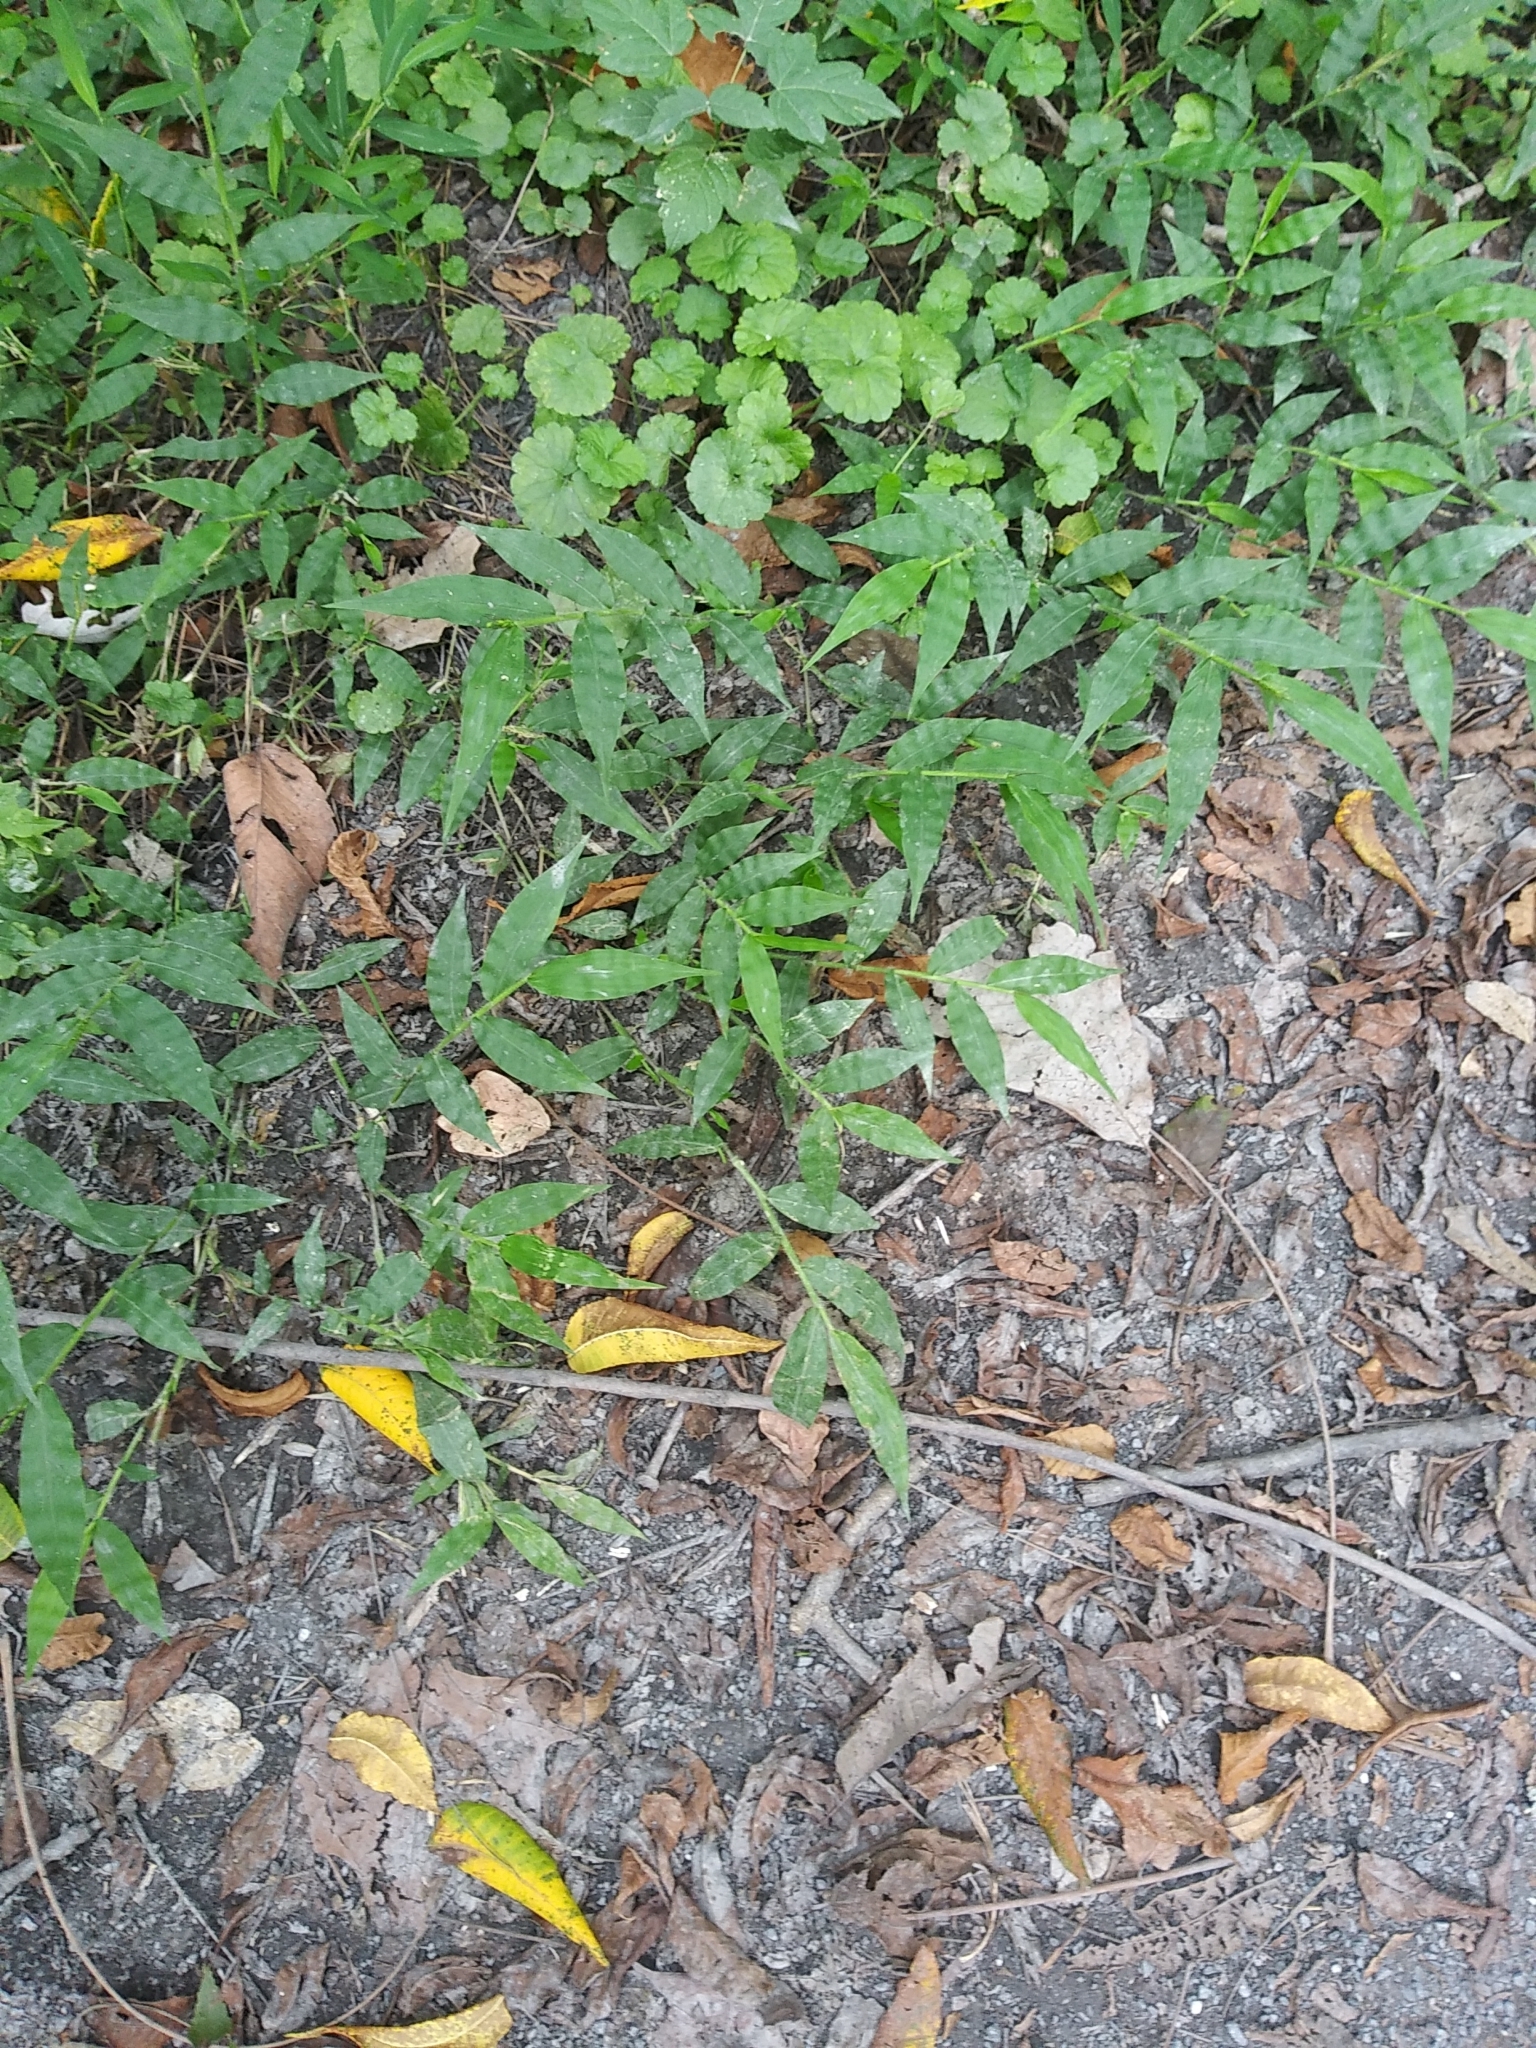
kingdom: Plantae
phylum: Tracheophyta
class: Liliopsida
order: Poales
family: Poaceae
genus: Oplismenus
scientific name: Oplismenus undulatifolius
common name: Wavyleaf basketgrass
